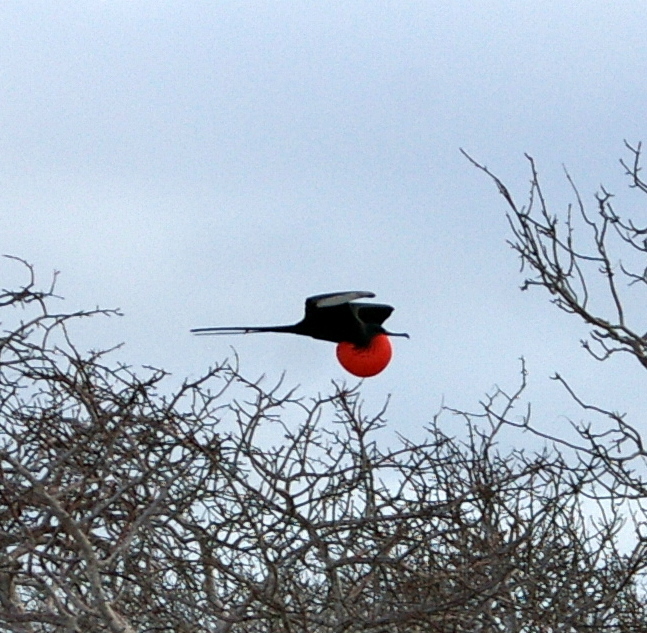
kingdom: Animalia
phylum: Chordata
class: Aves
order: Suliformes
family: Fregatidae
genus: Fregata
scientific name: Fregata magnificens
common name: Magnificent frigatebird
